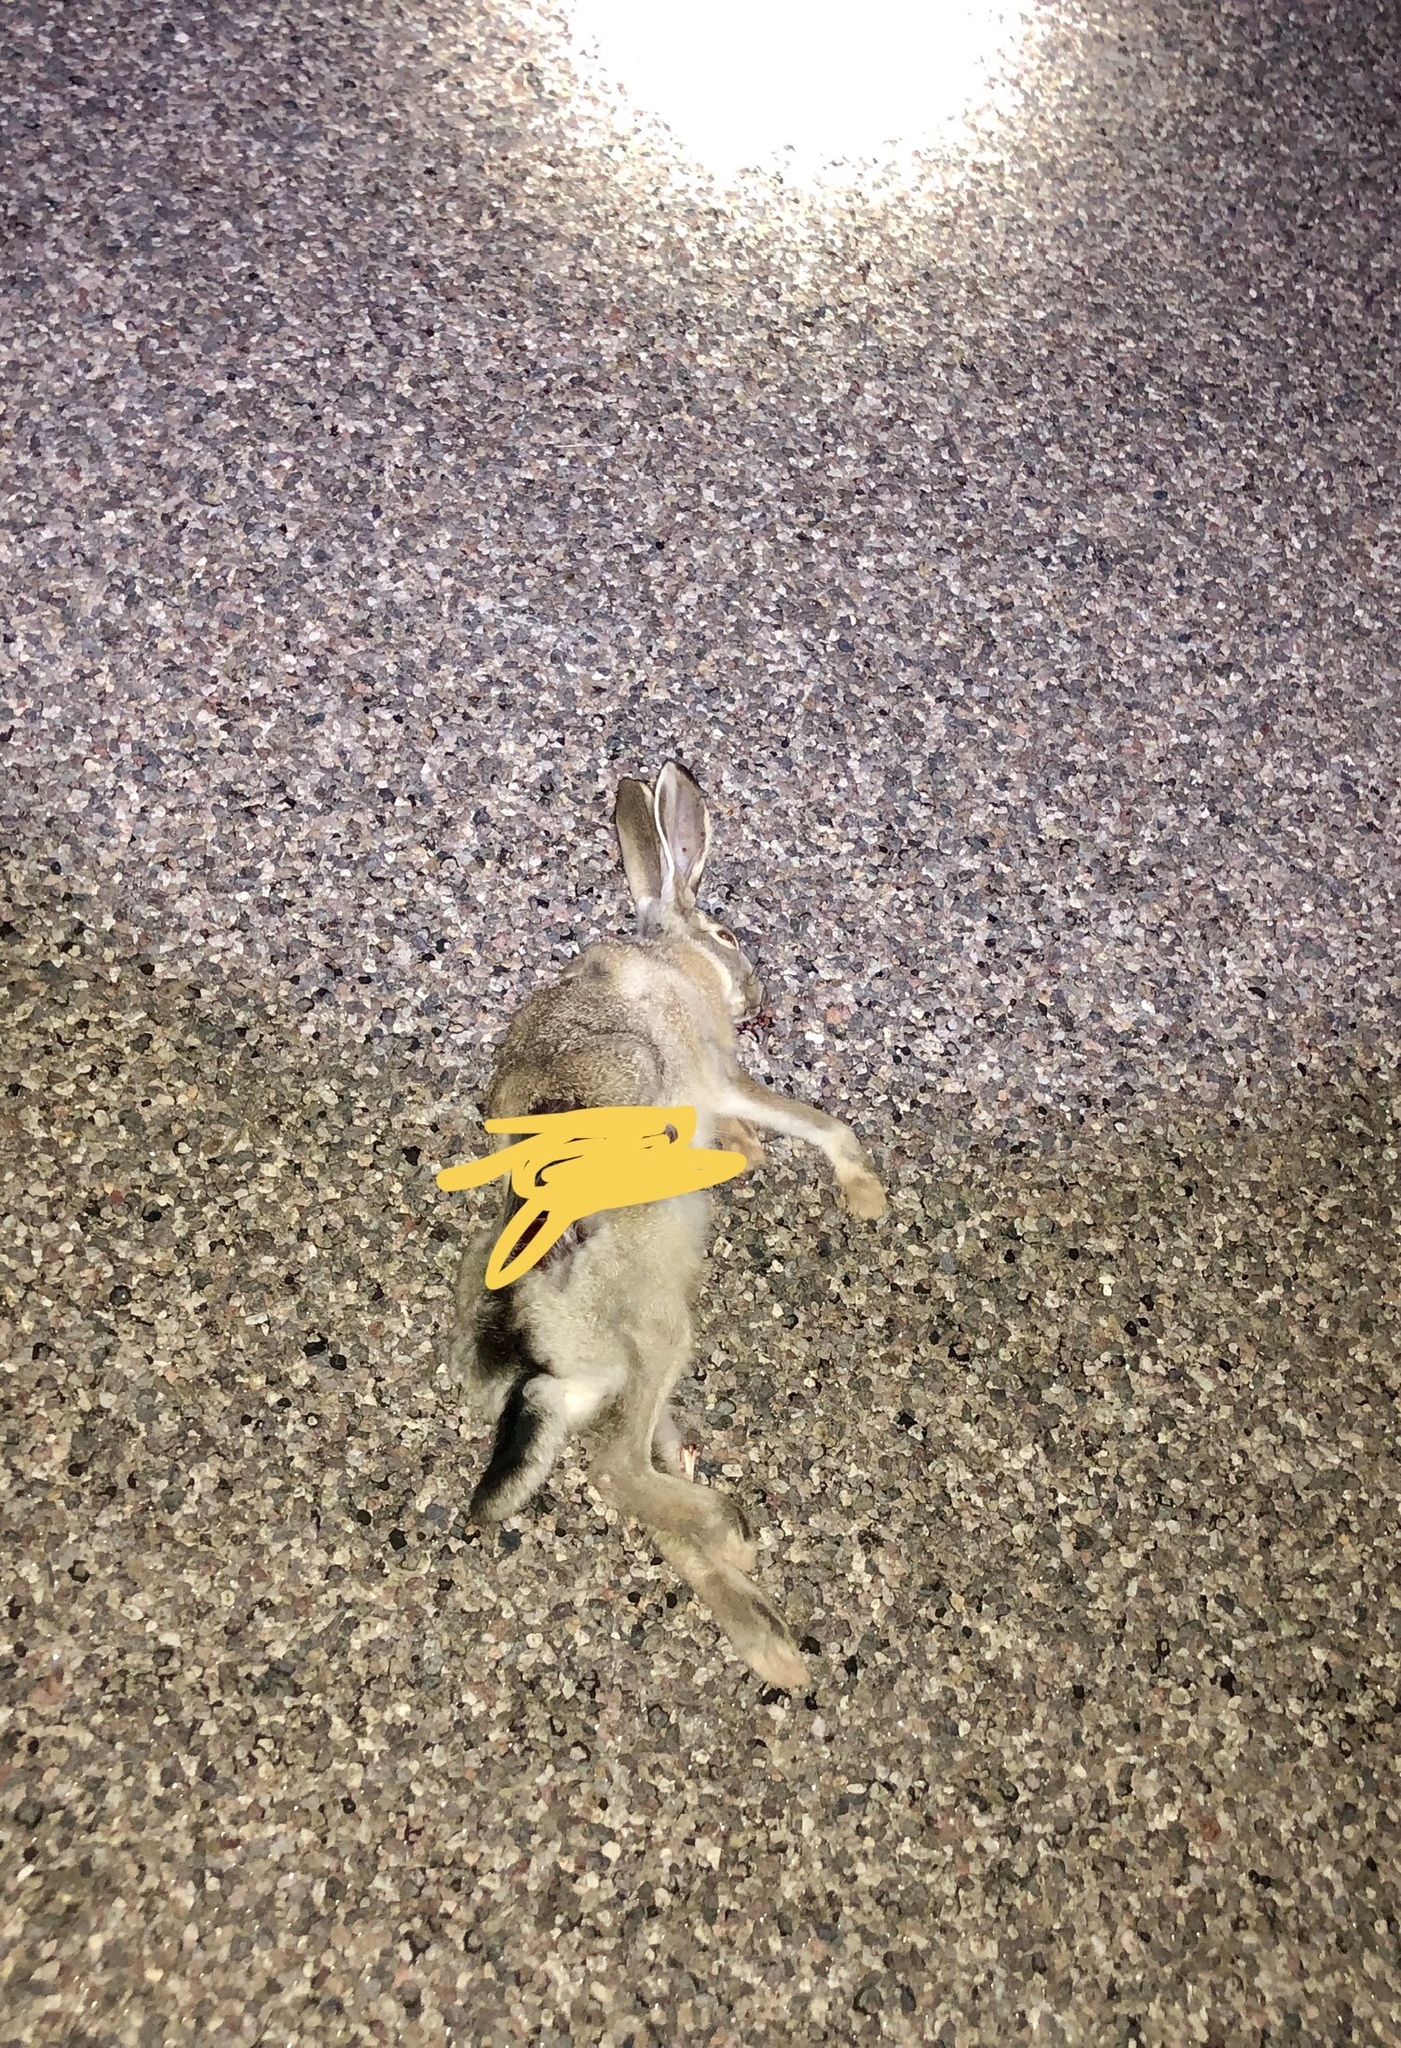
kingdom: Animalia
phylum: Chordata
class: Mammalia
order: Lagomorpha
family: Leporidae
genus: Lepus
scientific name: Lepus californicus
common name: Black-tailed jackrabbit
